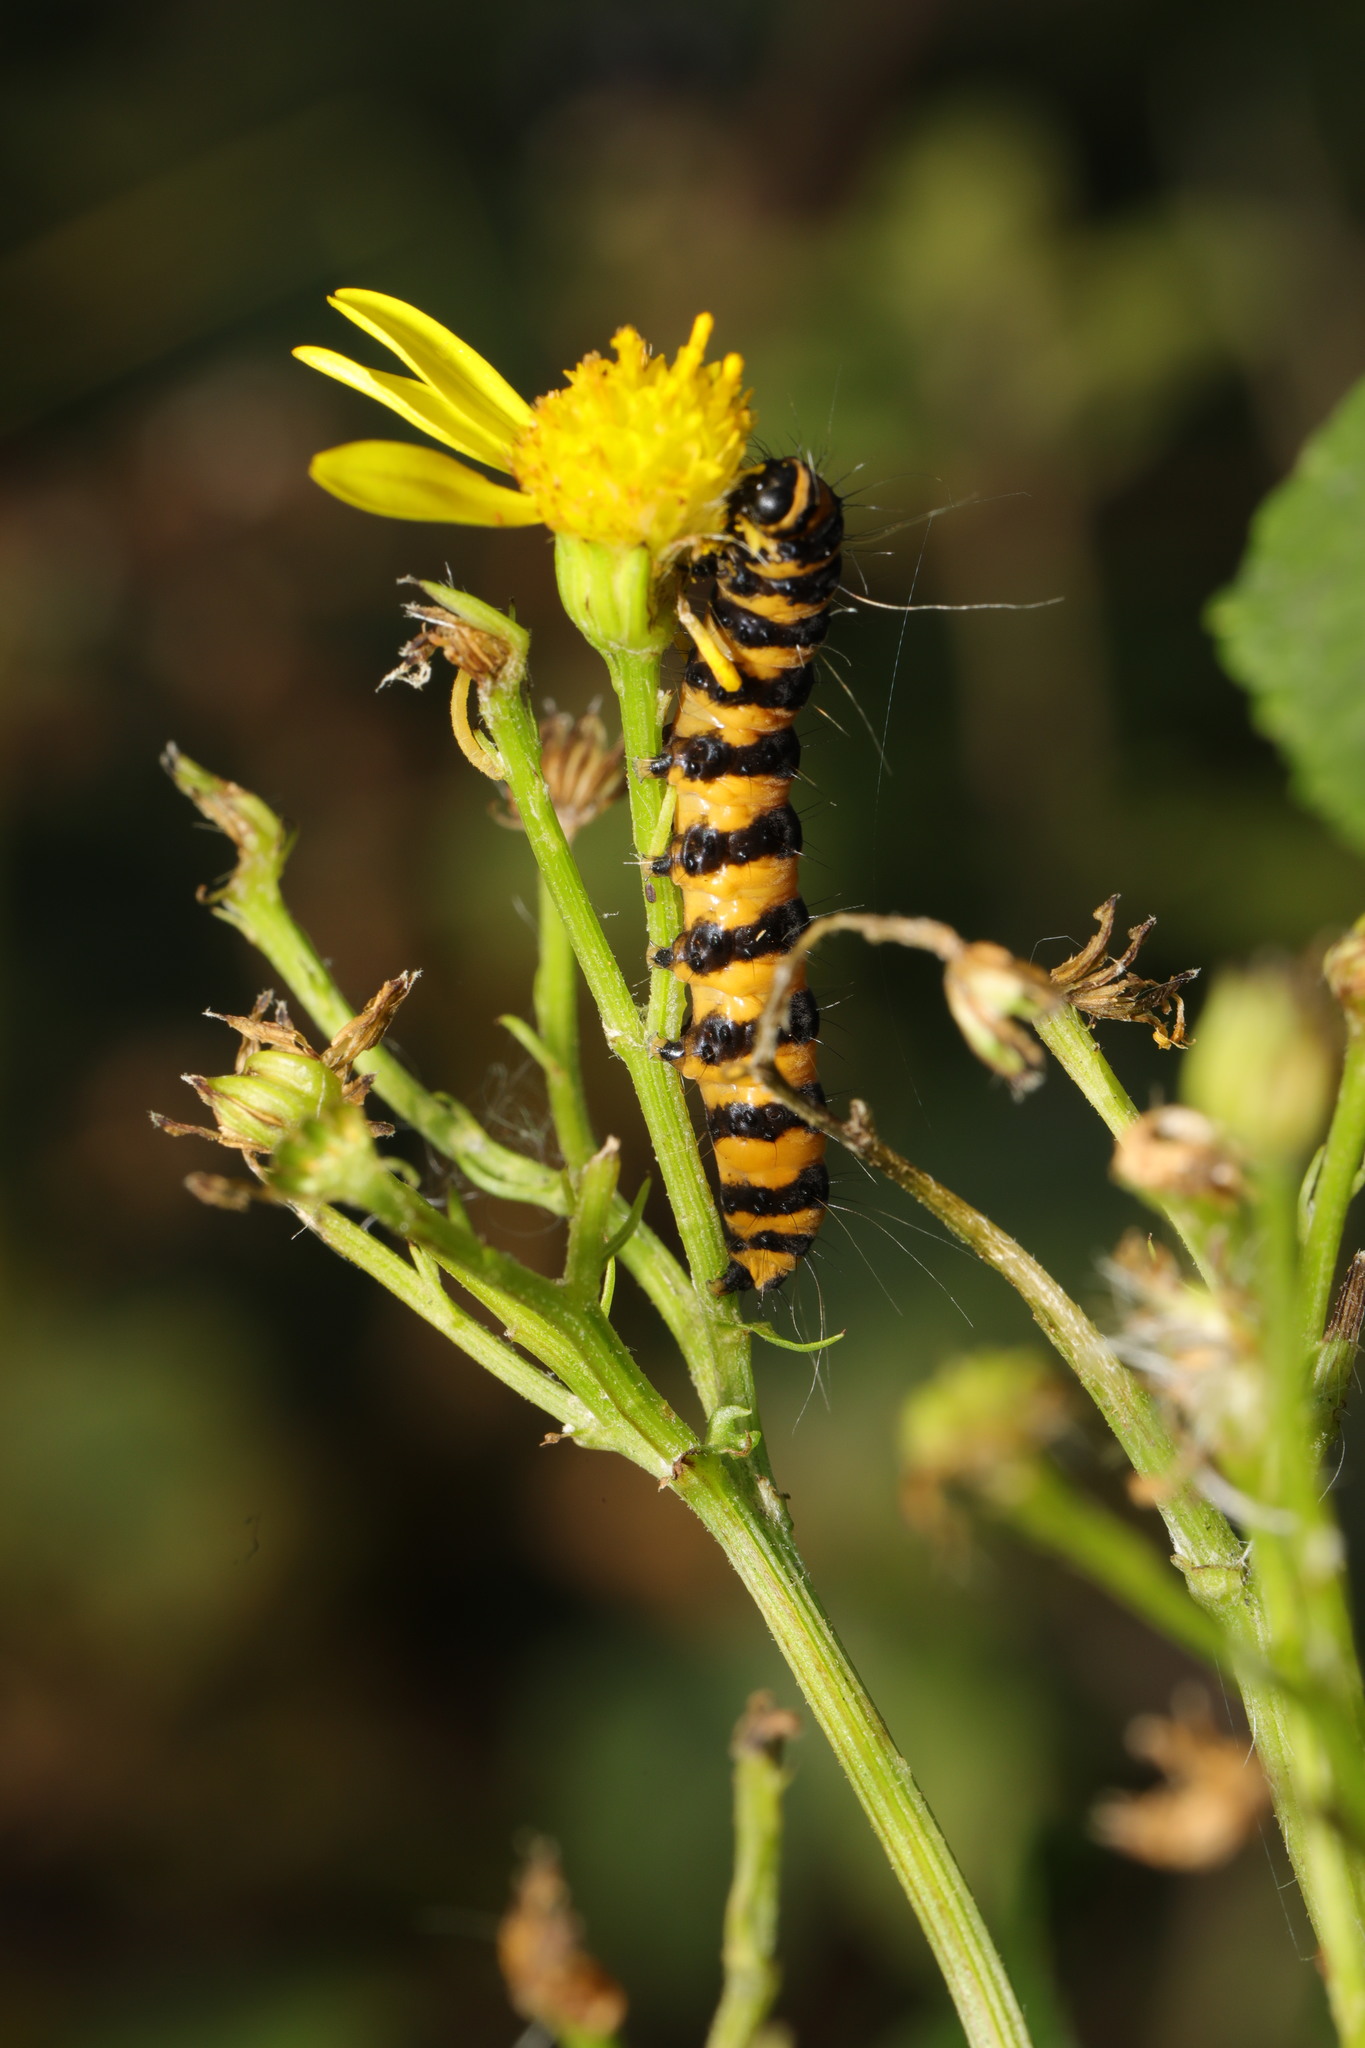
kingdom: Animalia
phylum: Arthropoda
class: Insecta
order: Lepidoptera
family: Erebidae
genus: Tyria
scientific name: Tyria jacobaeae
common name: Cinnabar
